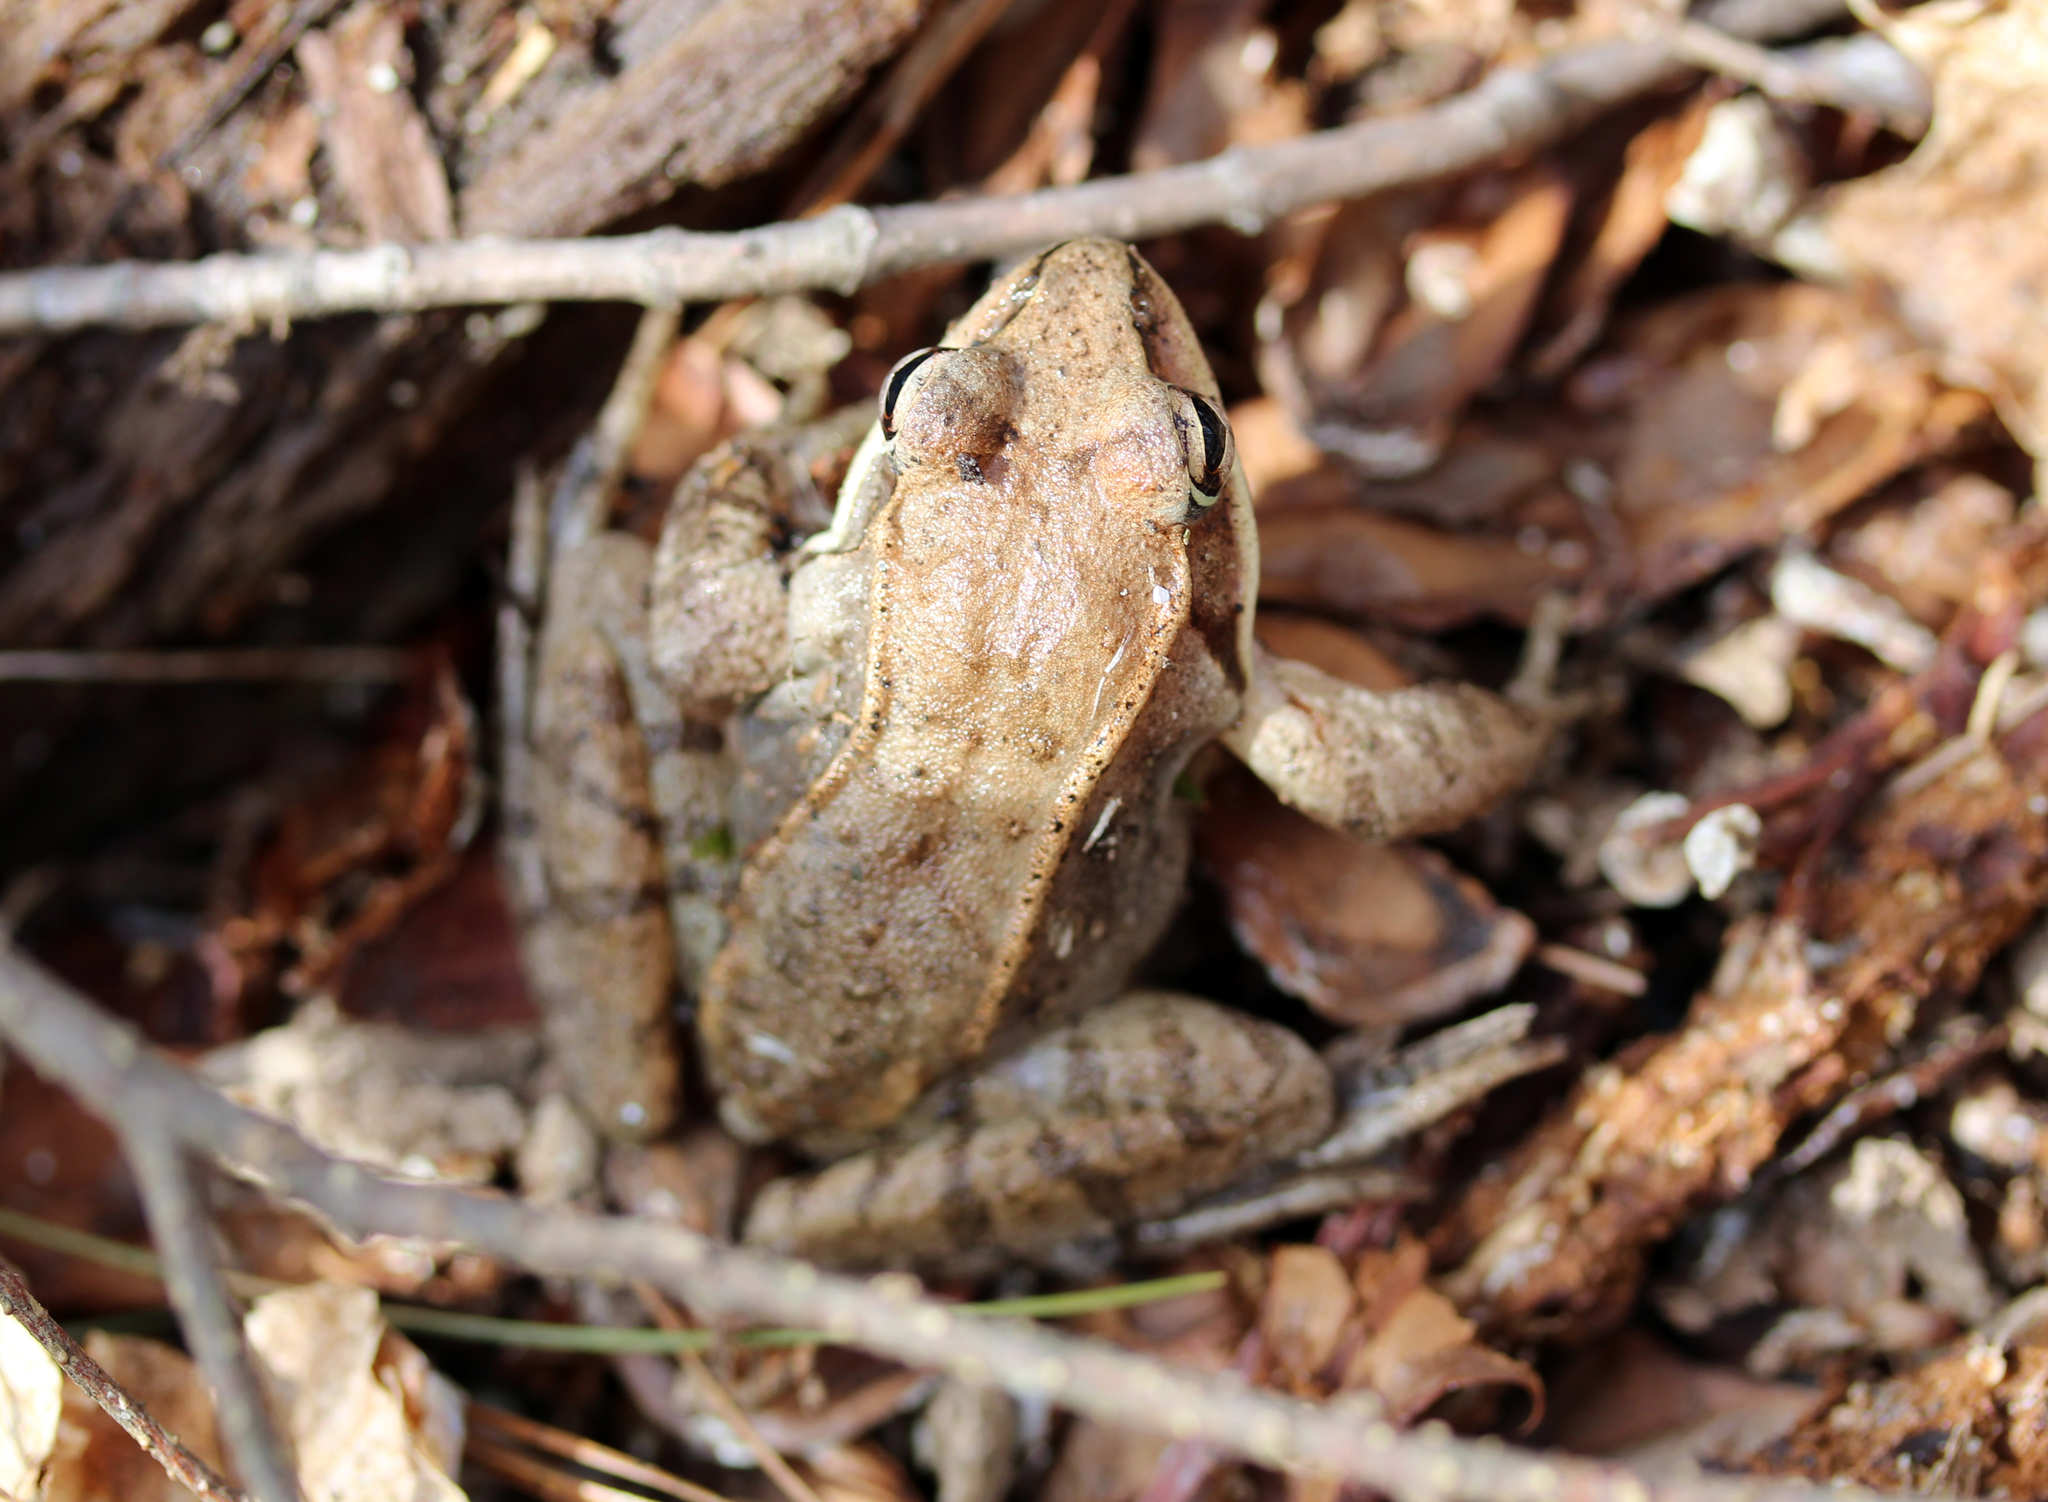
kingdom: Animalia
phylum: Chordata
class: Amphibia
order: Anura
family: Ranidae
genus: Lithobates
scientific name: Lithobates sylvaticus
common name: Wood frog
